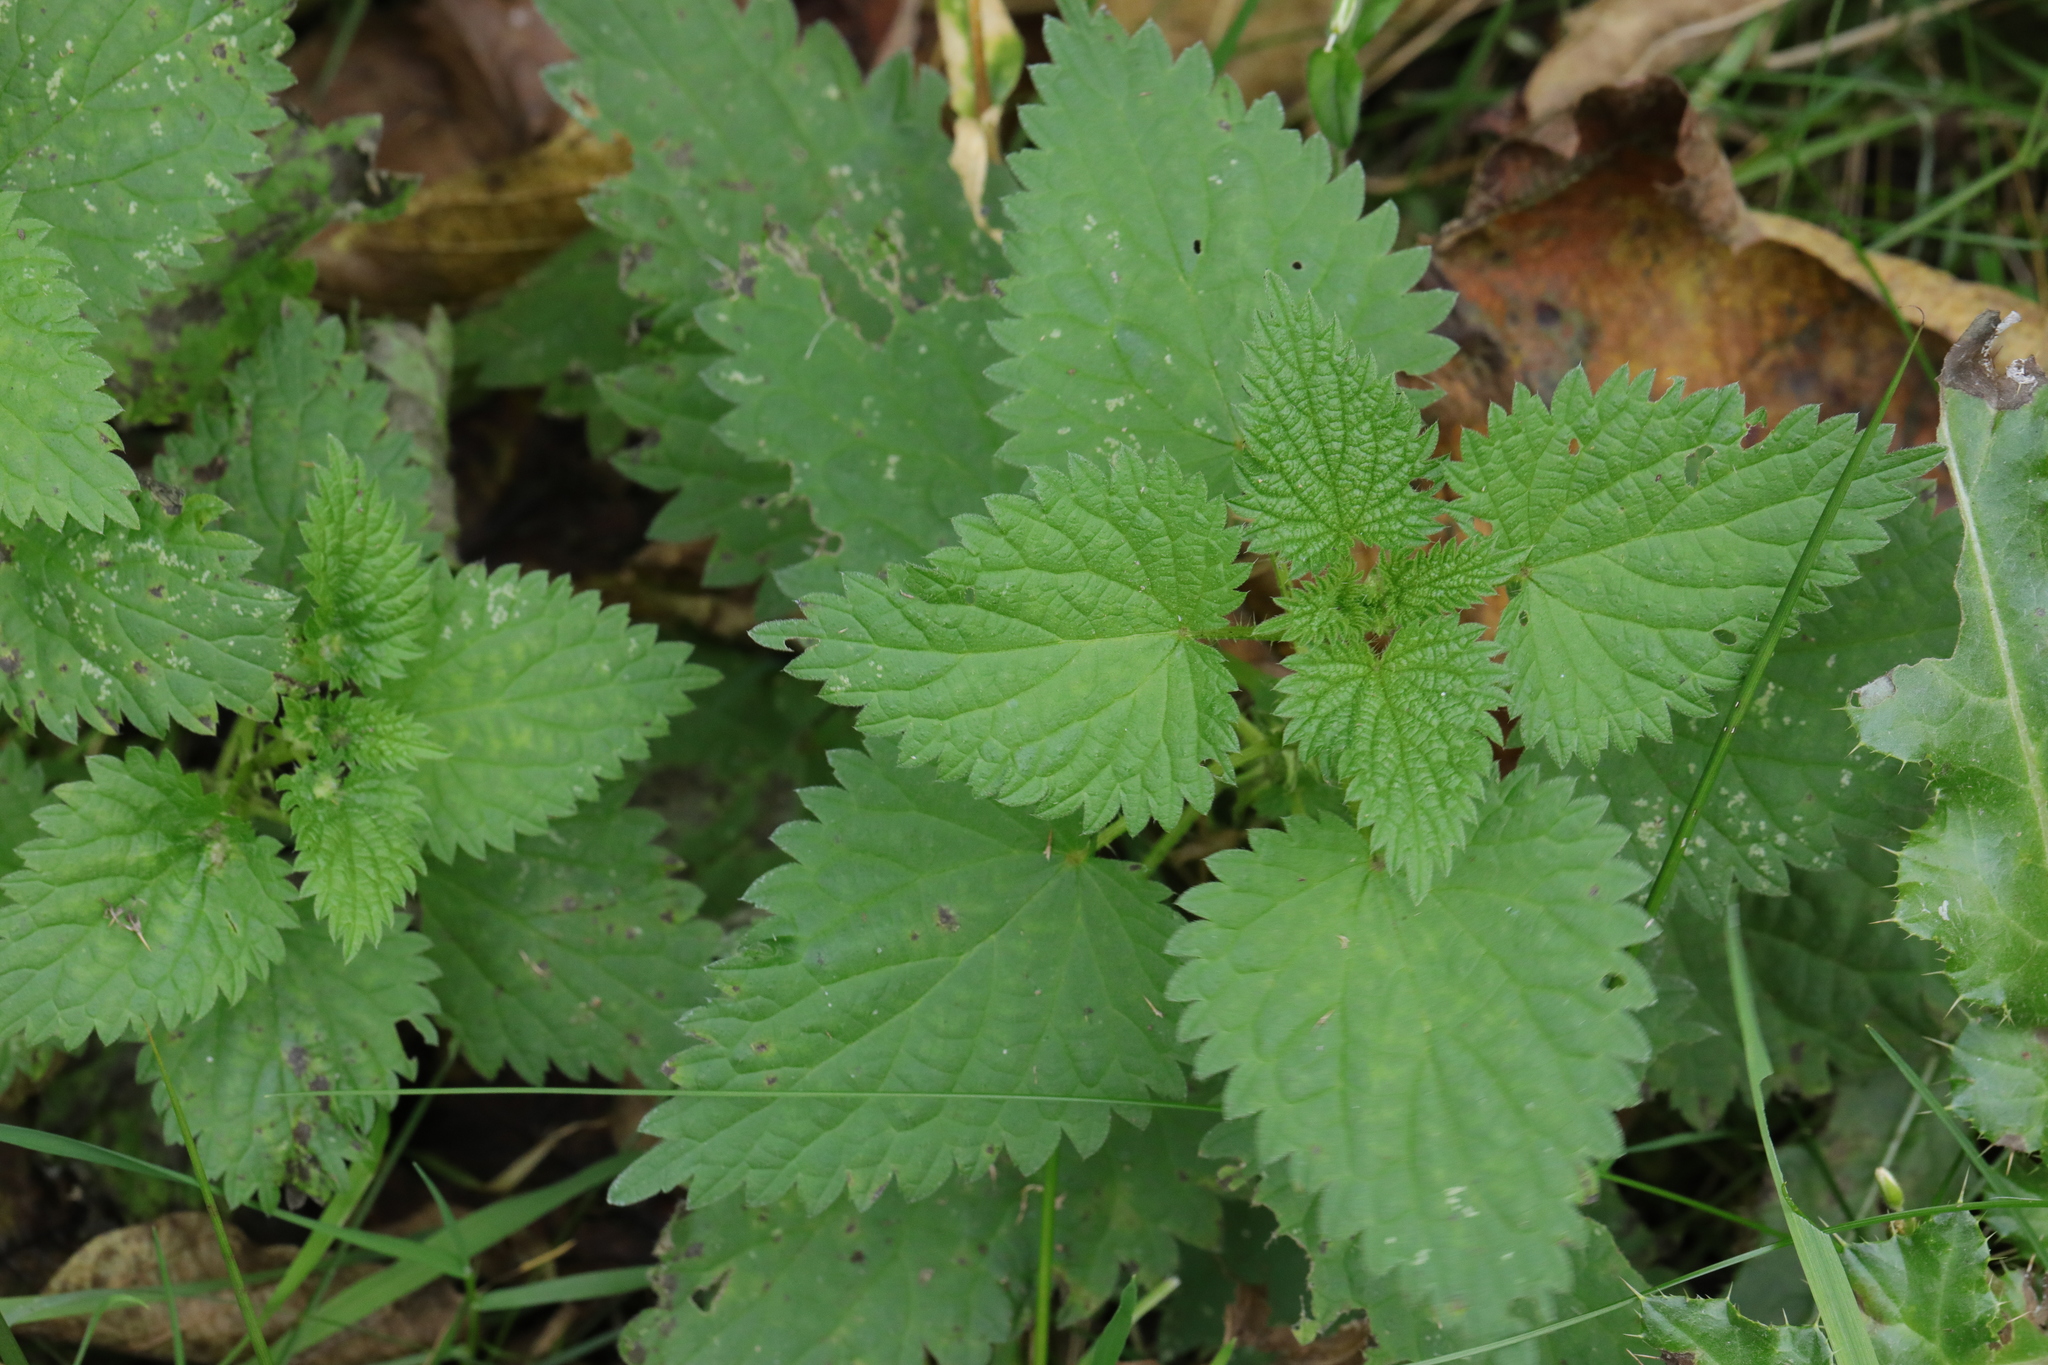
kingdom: Plantae
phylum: Tracheophyta
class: Magnoliopsida
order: Rosales
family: Urticaceae
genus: Urtica
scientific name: Urtica dioica
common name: Common nettle
